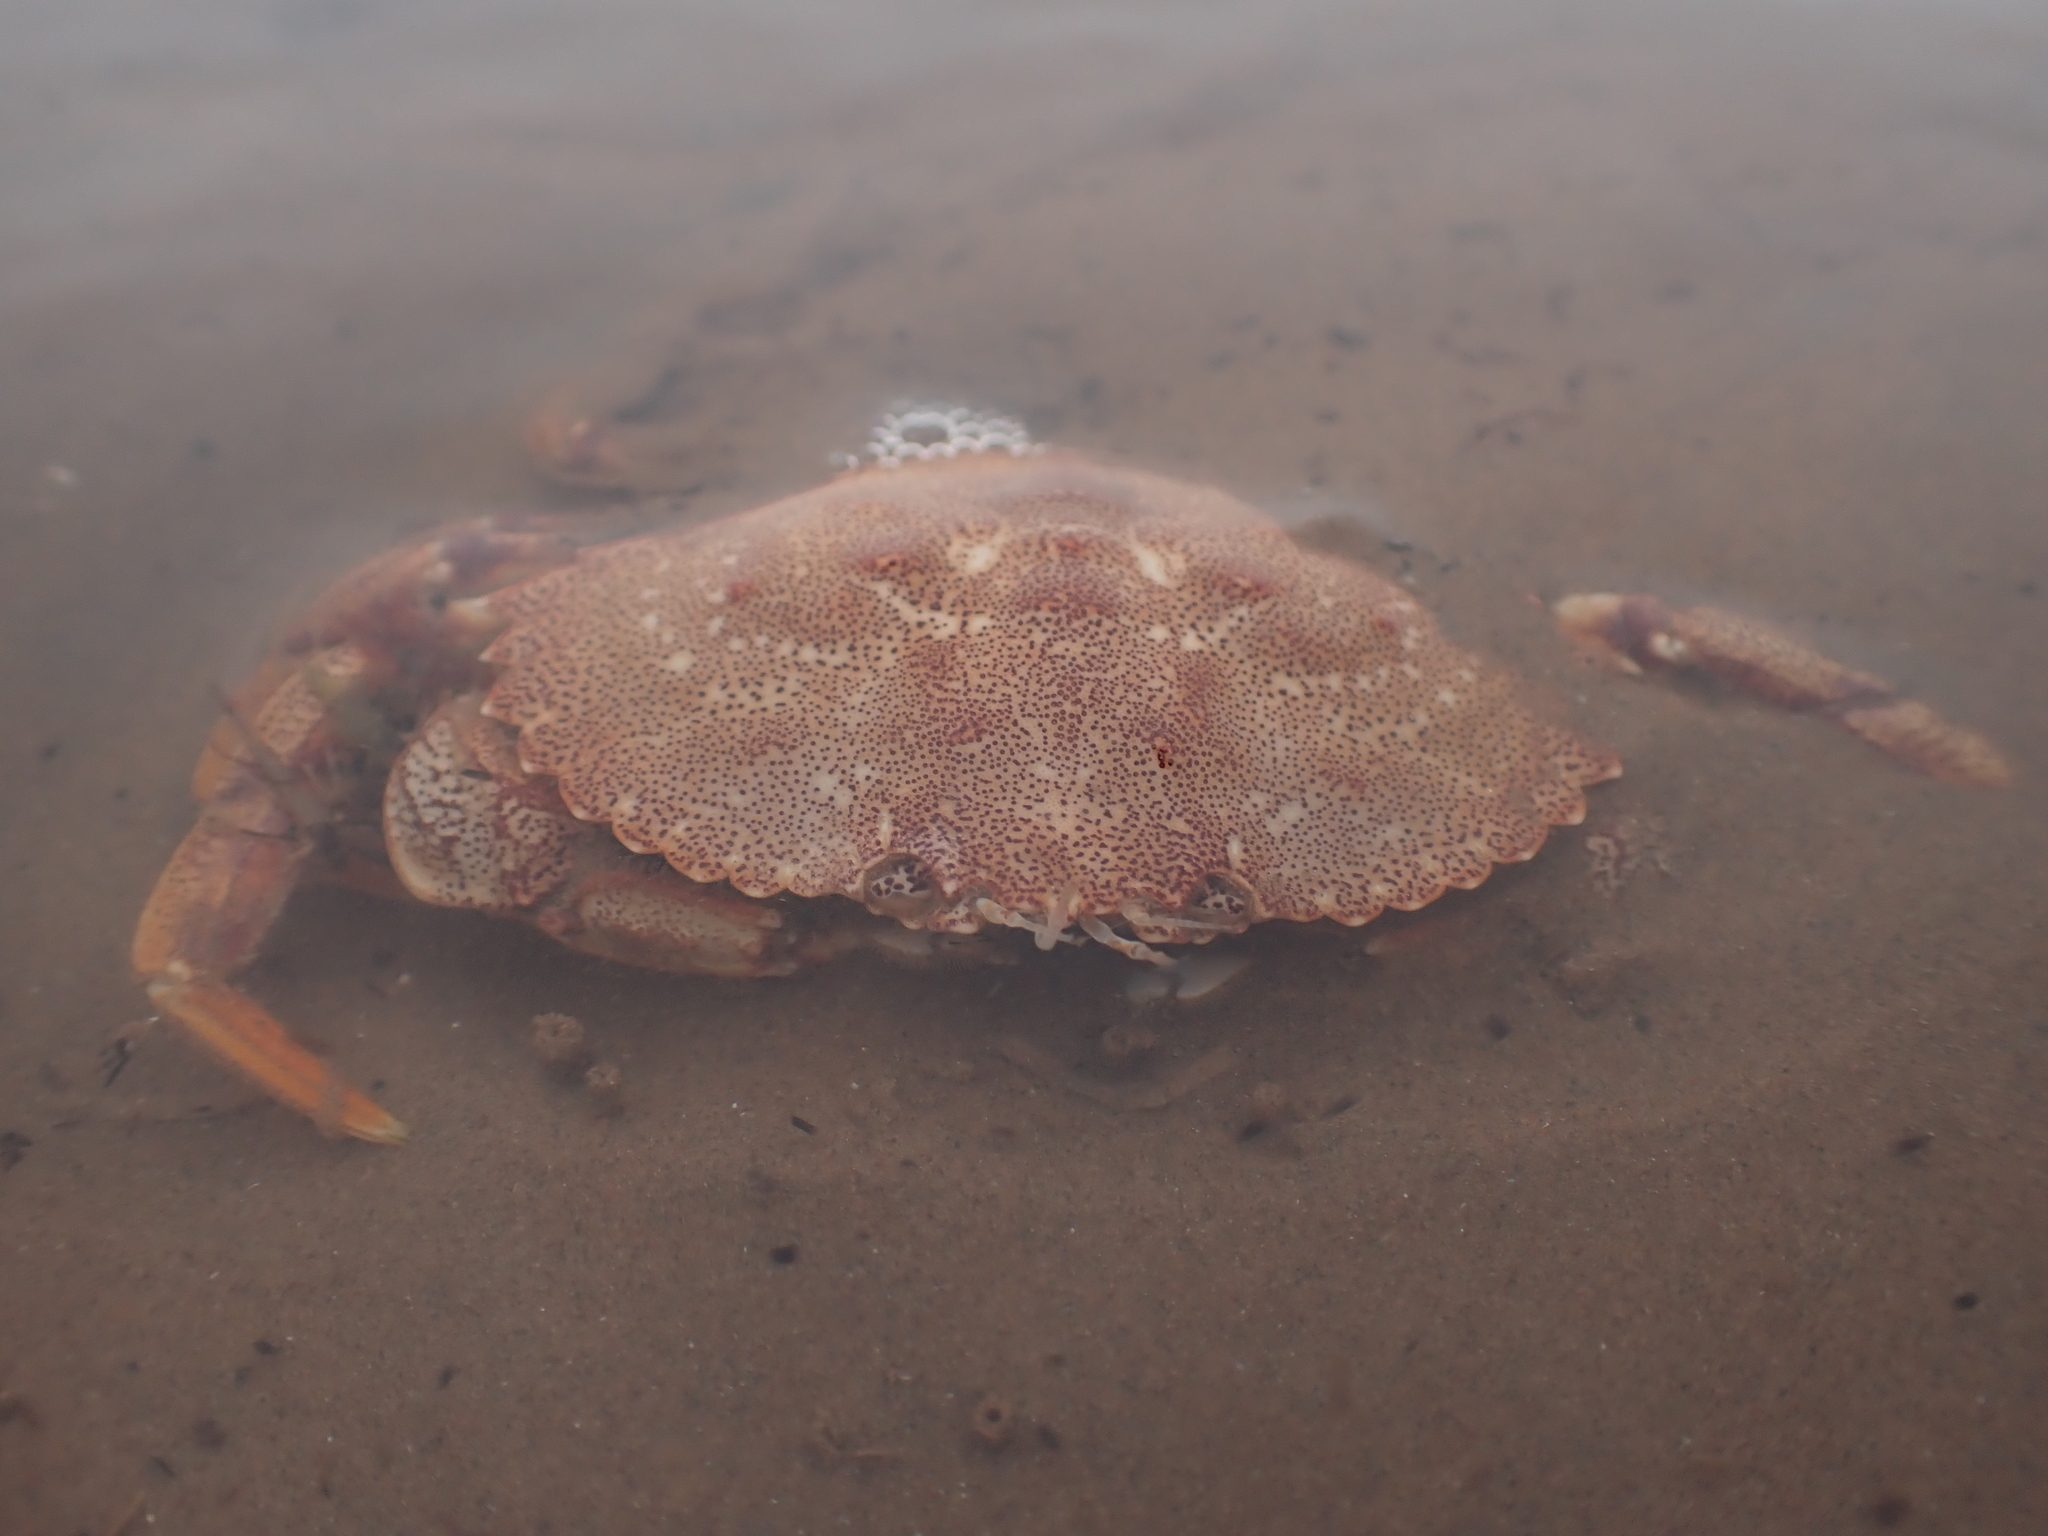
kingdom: Animalia
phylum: Arthropoda
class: Malacostraca
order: Decapoda
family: Cancridae
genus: Cancer
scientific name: Cancer irroratus
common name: Atlantic rock crab
